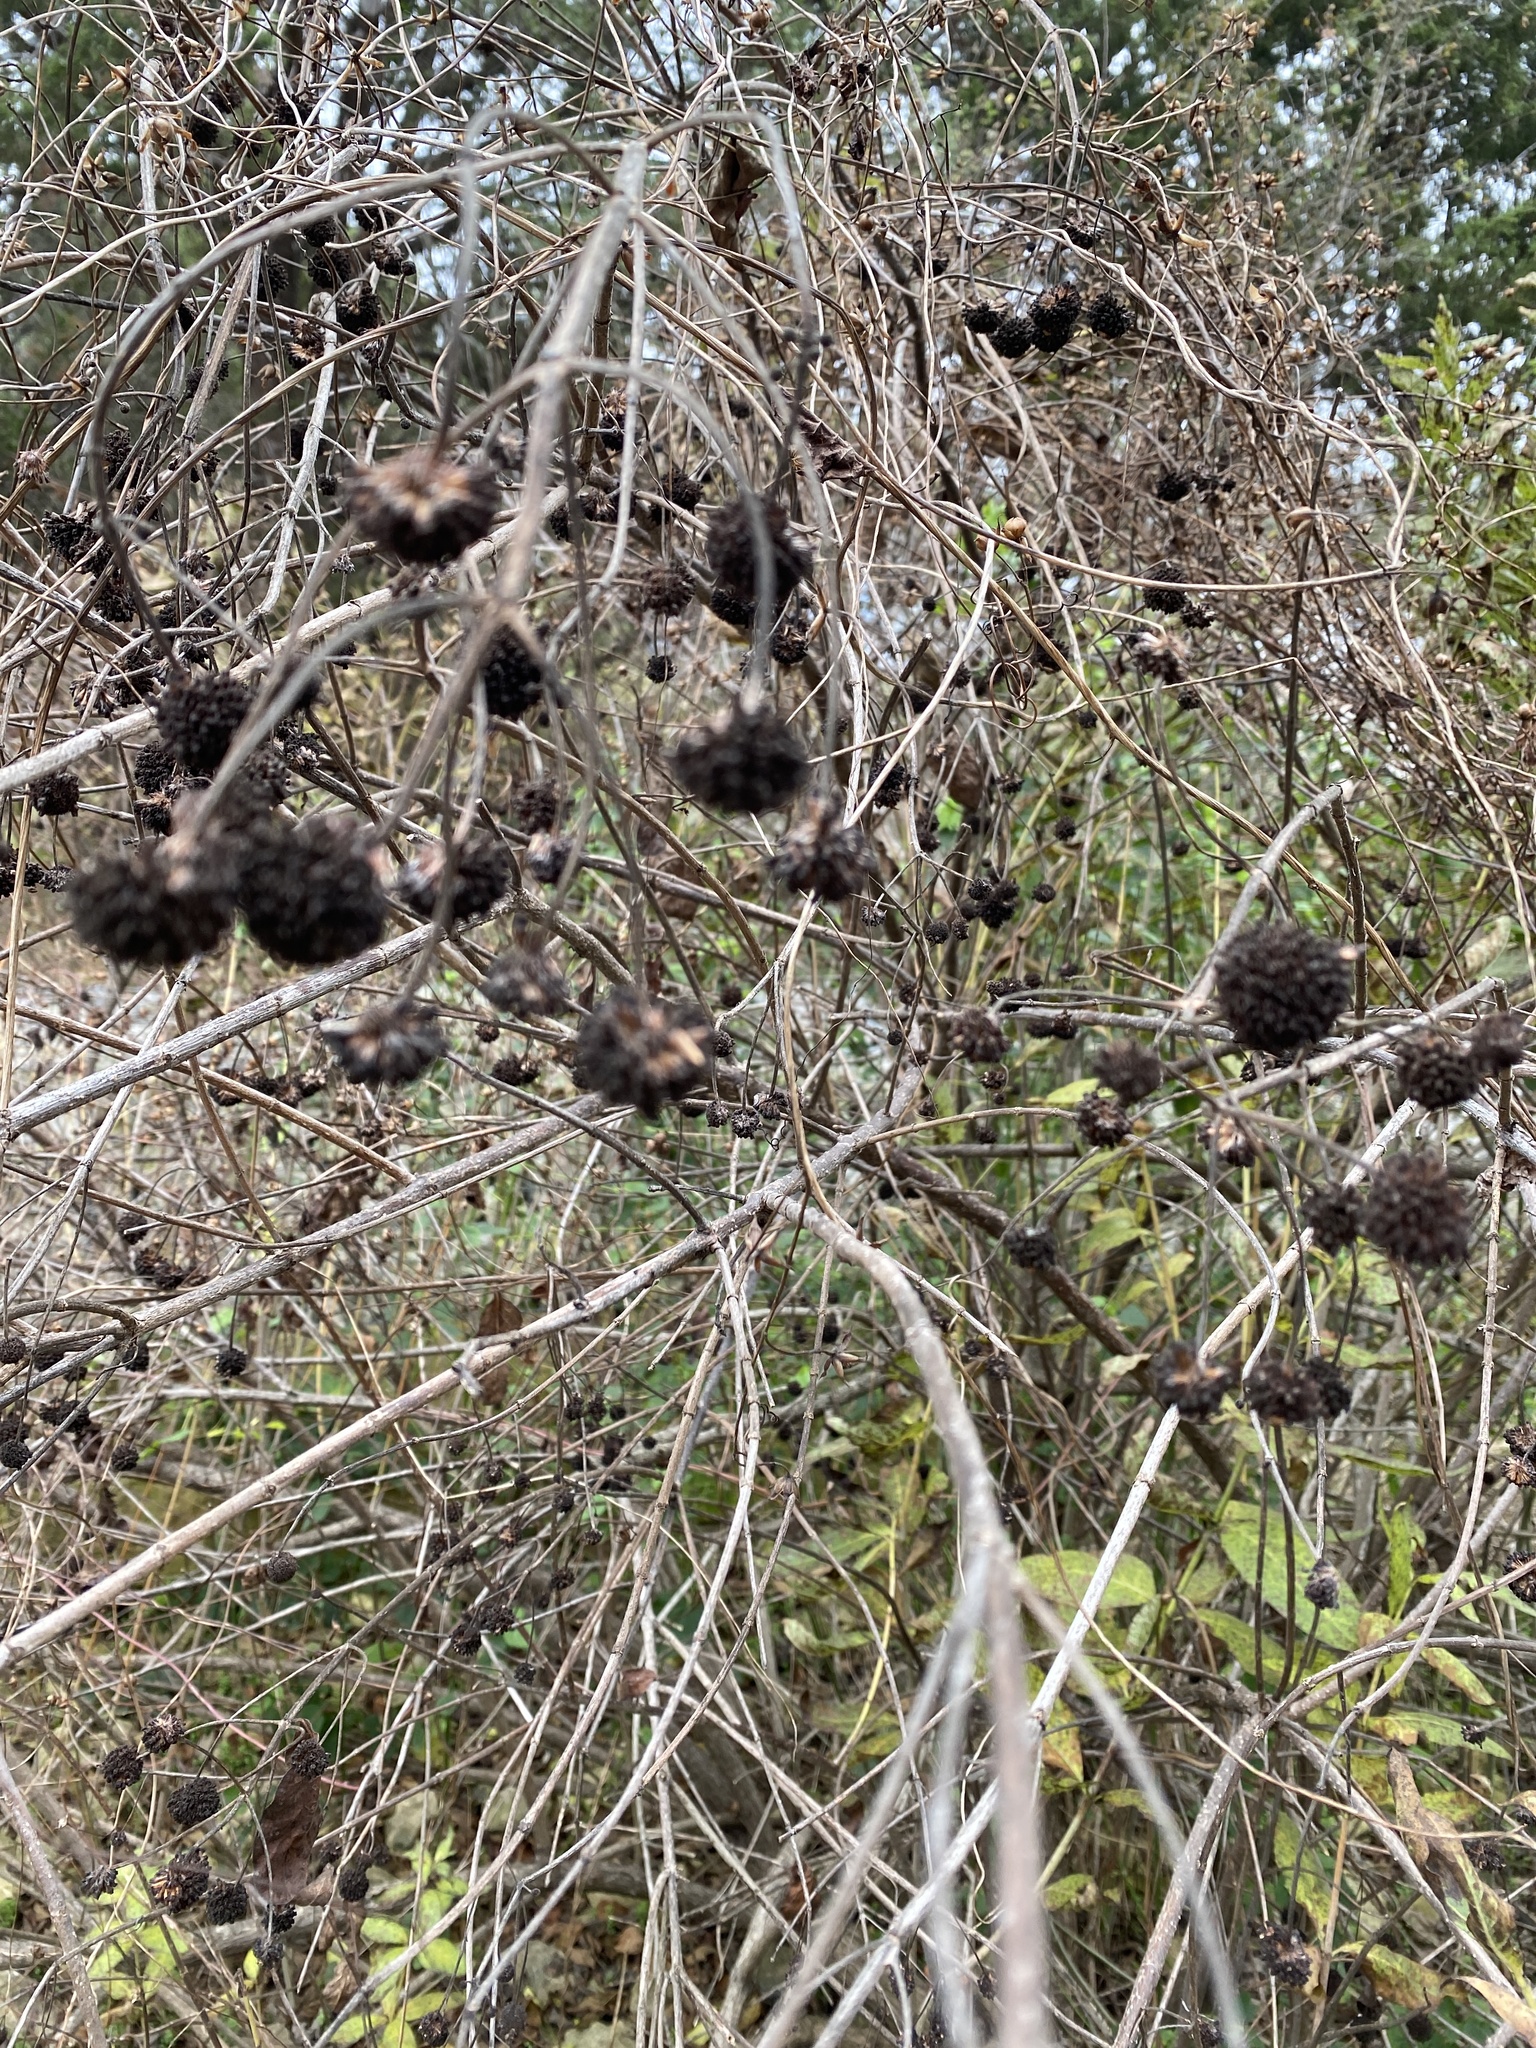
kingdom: Plantae
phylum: Tracheophyta
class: Magnoliopsida
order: Gentianales
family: Rubiaceae
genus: Cephalanthus
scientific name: Cephalanthus occidentalis
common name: Button-willow
